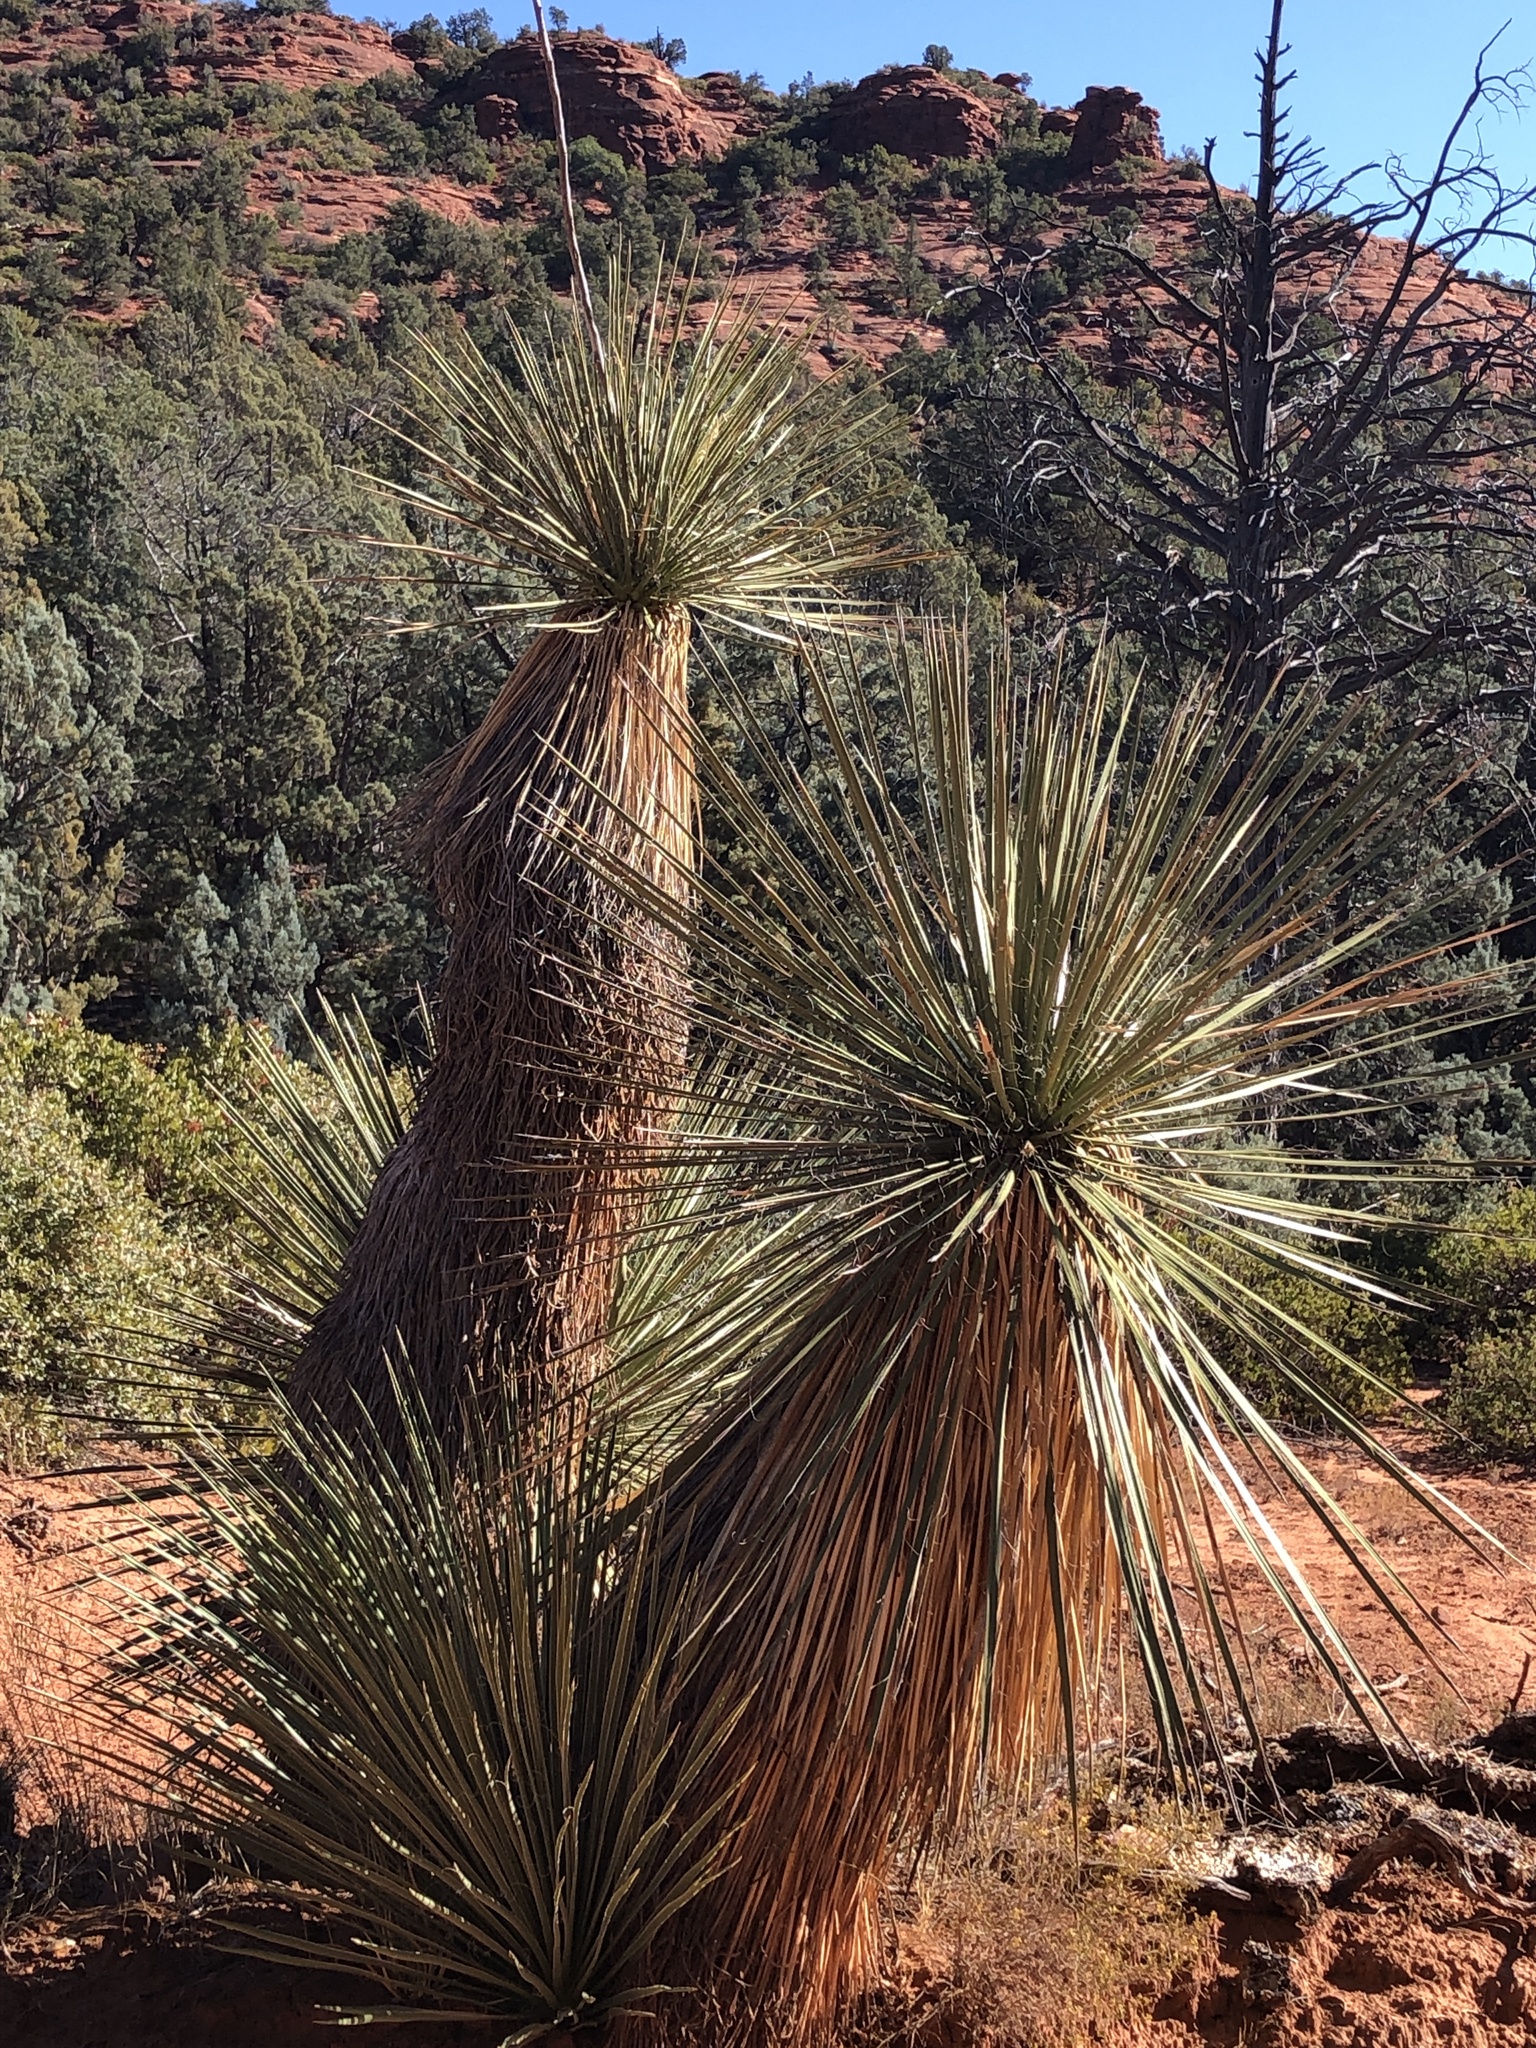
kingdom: Plantae
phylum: Tracheophyta
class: Liliopsida
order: Asparagales
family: Asparagaceae
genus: Yucca
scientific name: Yucca elata
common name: Palmella
